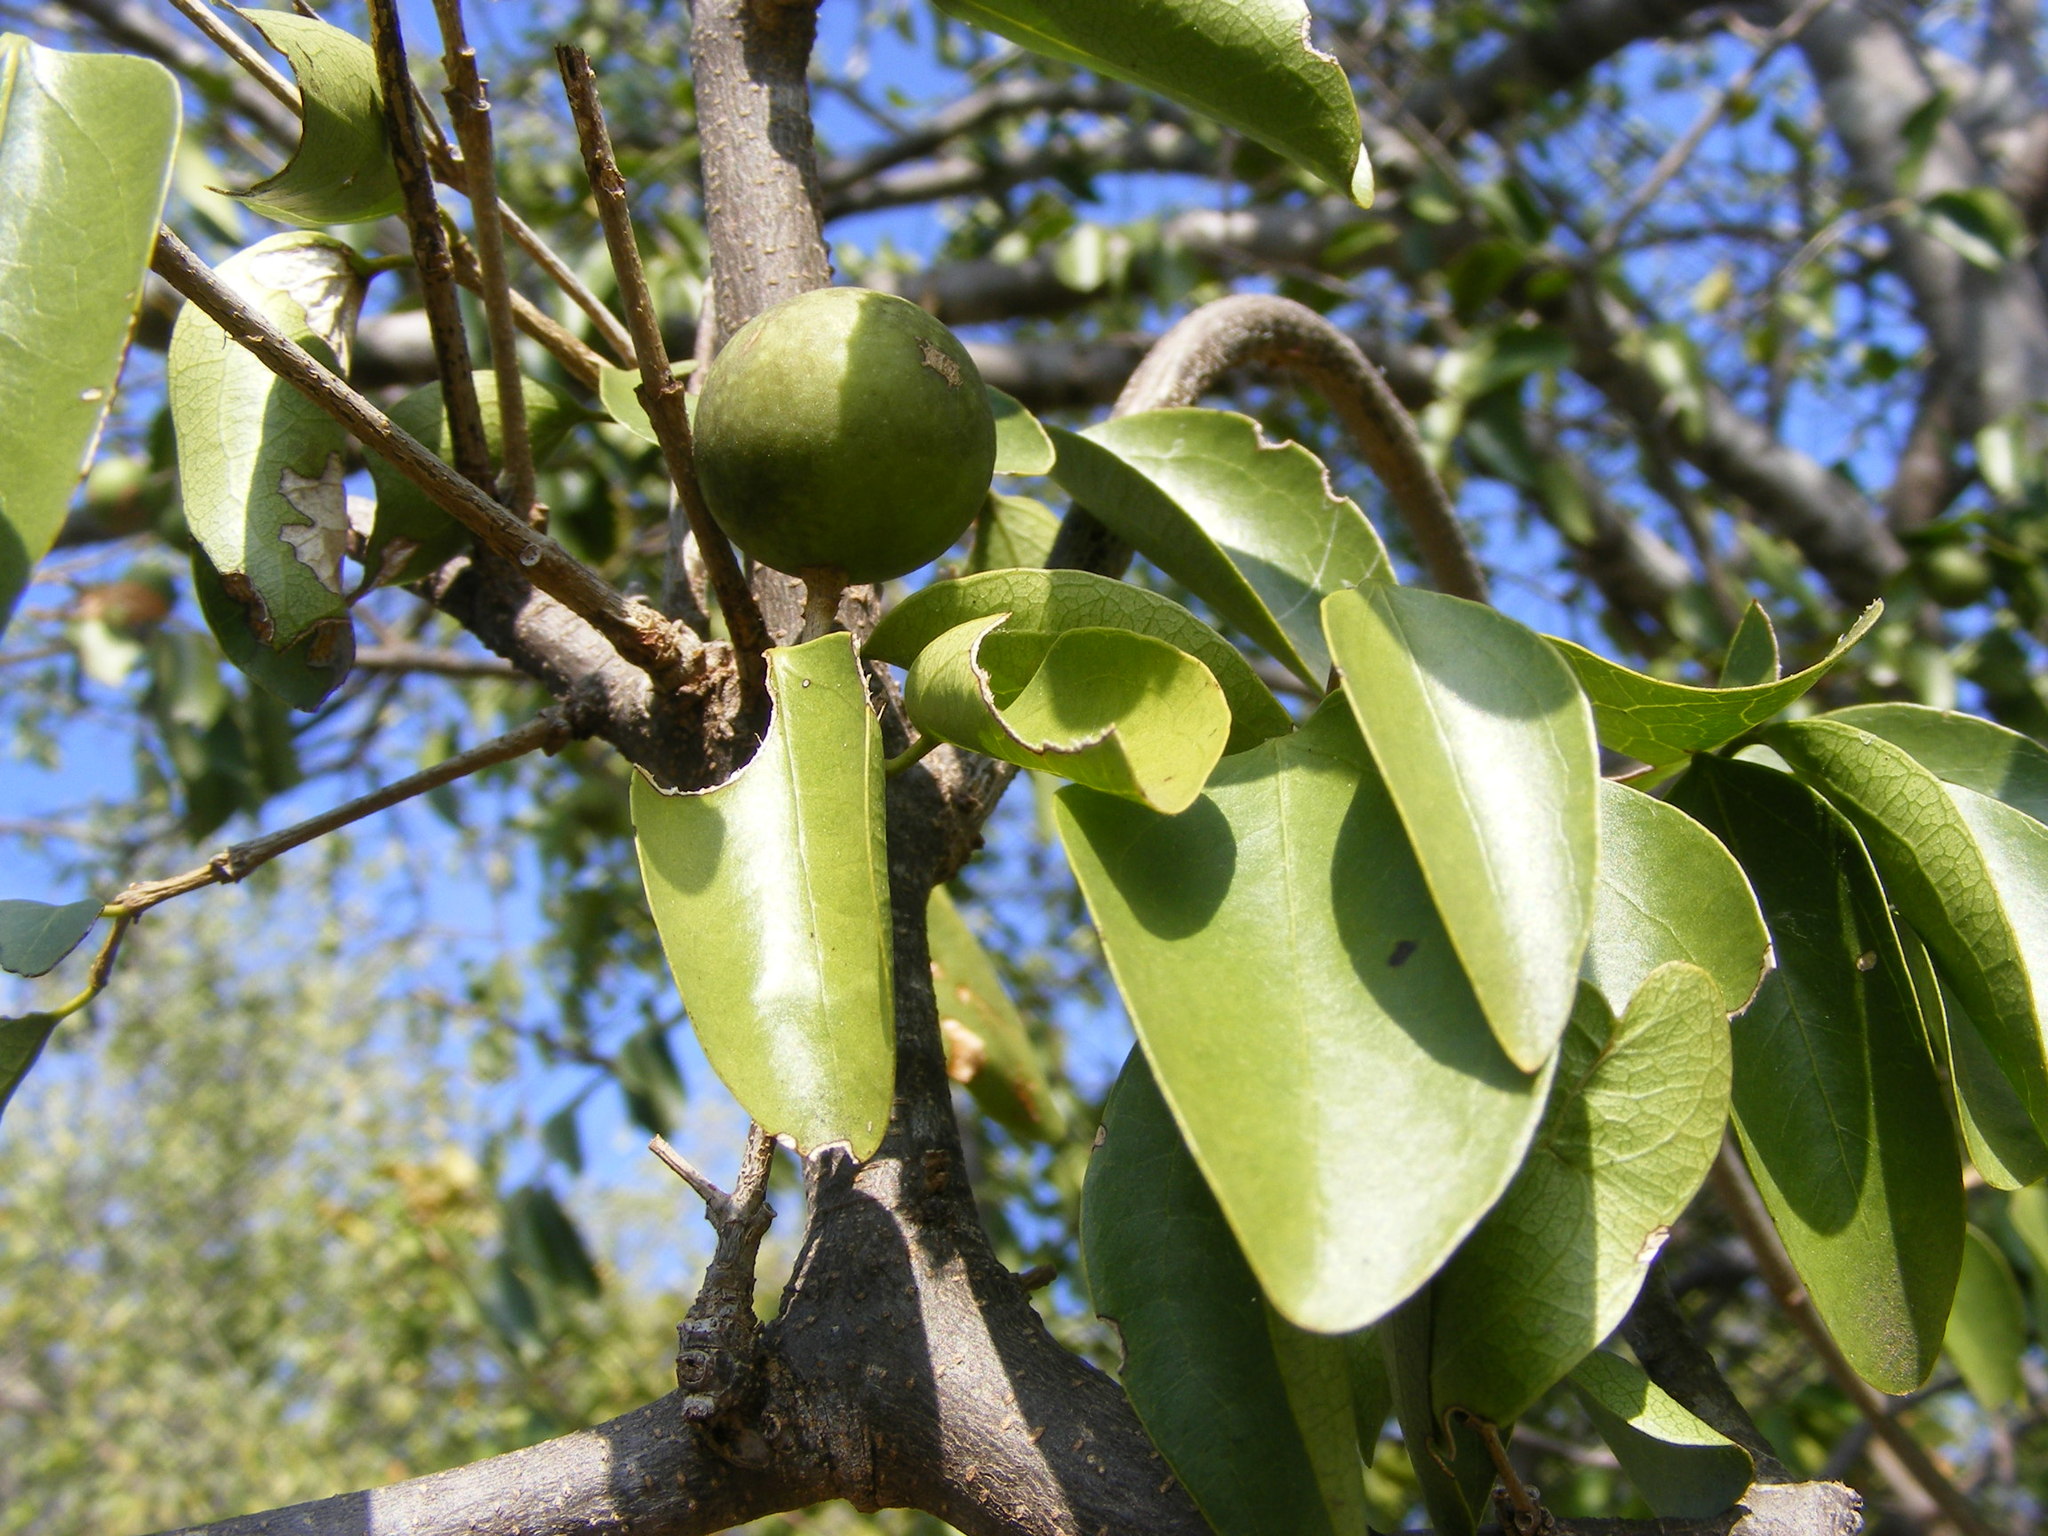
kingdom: Plantae
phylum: Tracheophyta
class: Magnoliopsida
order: Gentianales
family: Loganiaceae
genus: Strychnos
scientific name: Strychnos decussata
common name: Cape teak
